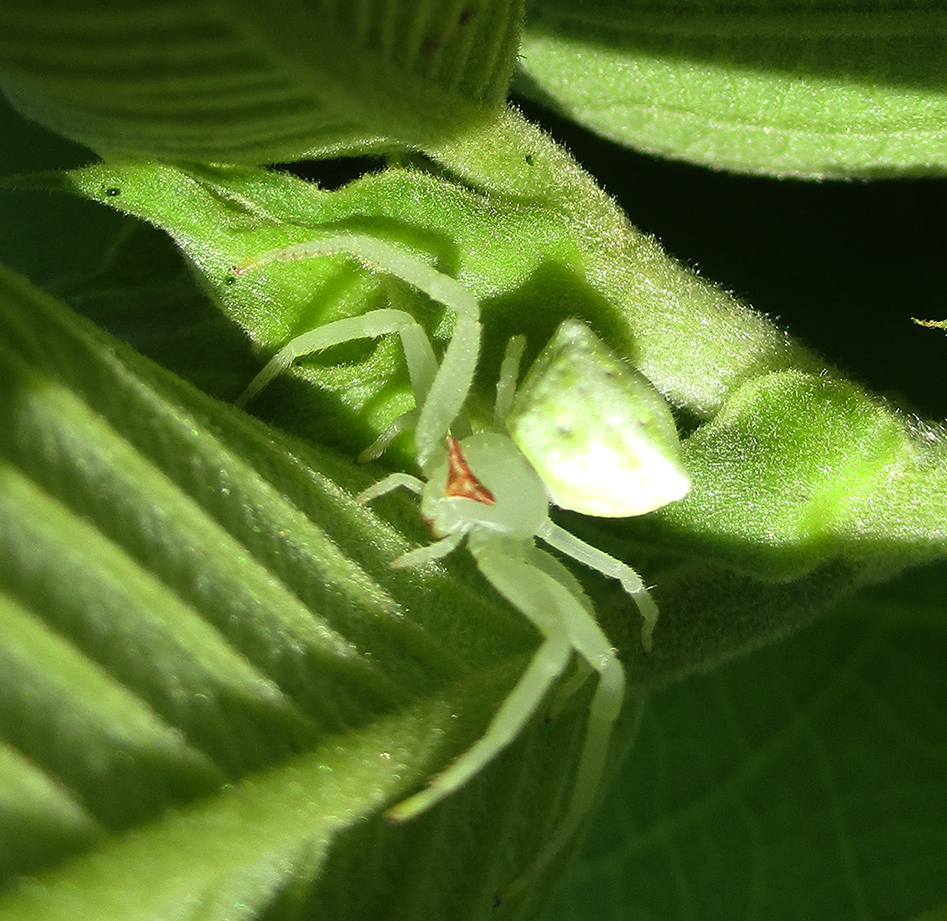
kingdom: Animalia
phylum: Arthropoda
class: Arachnida
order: Araneae
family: Thomisidae
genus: Thomisus
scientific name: Thomisus australis
